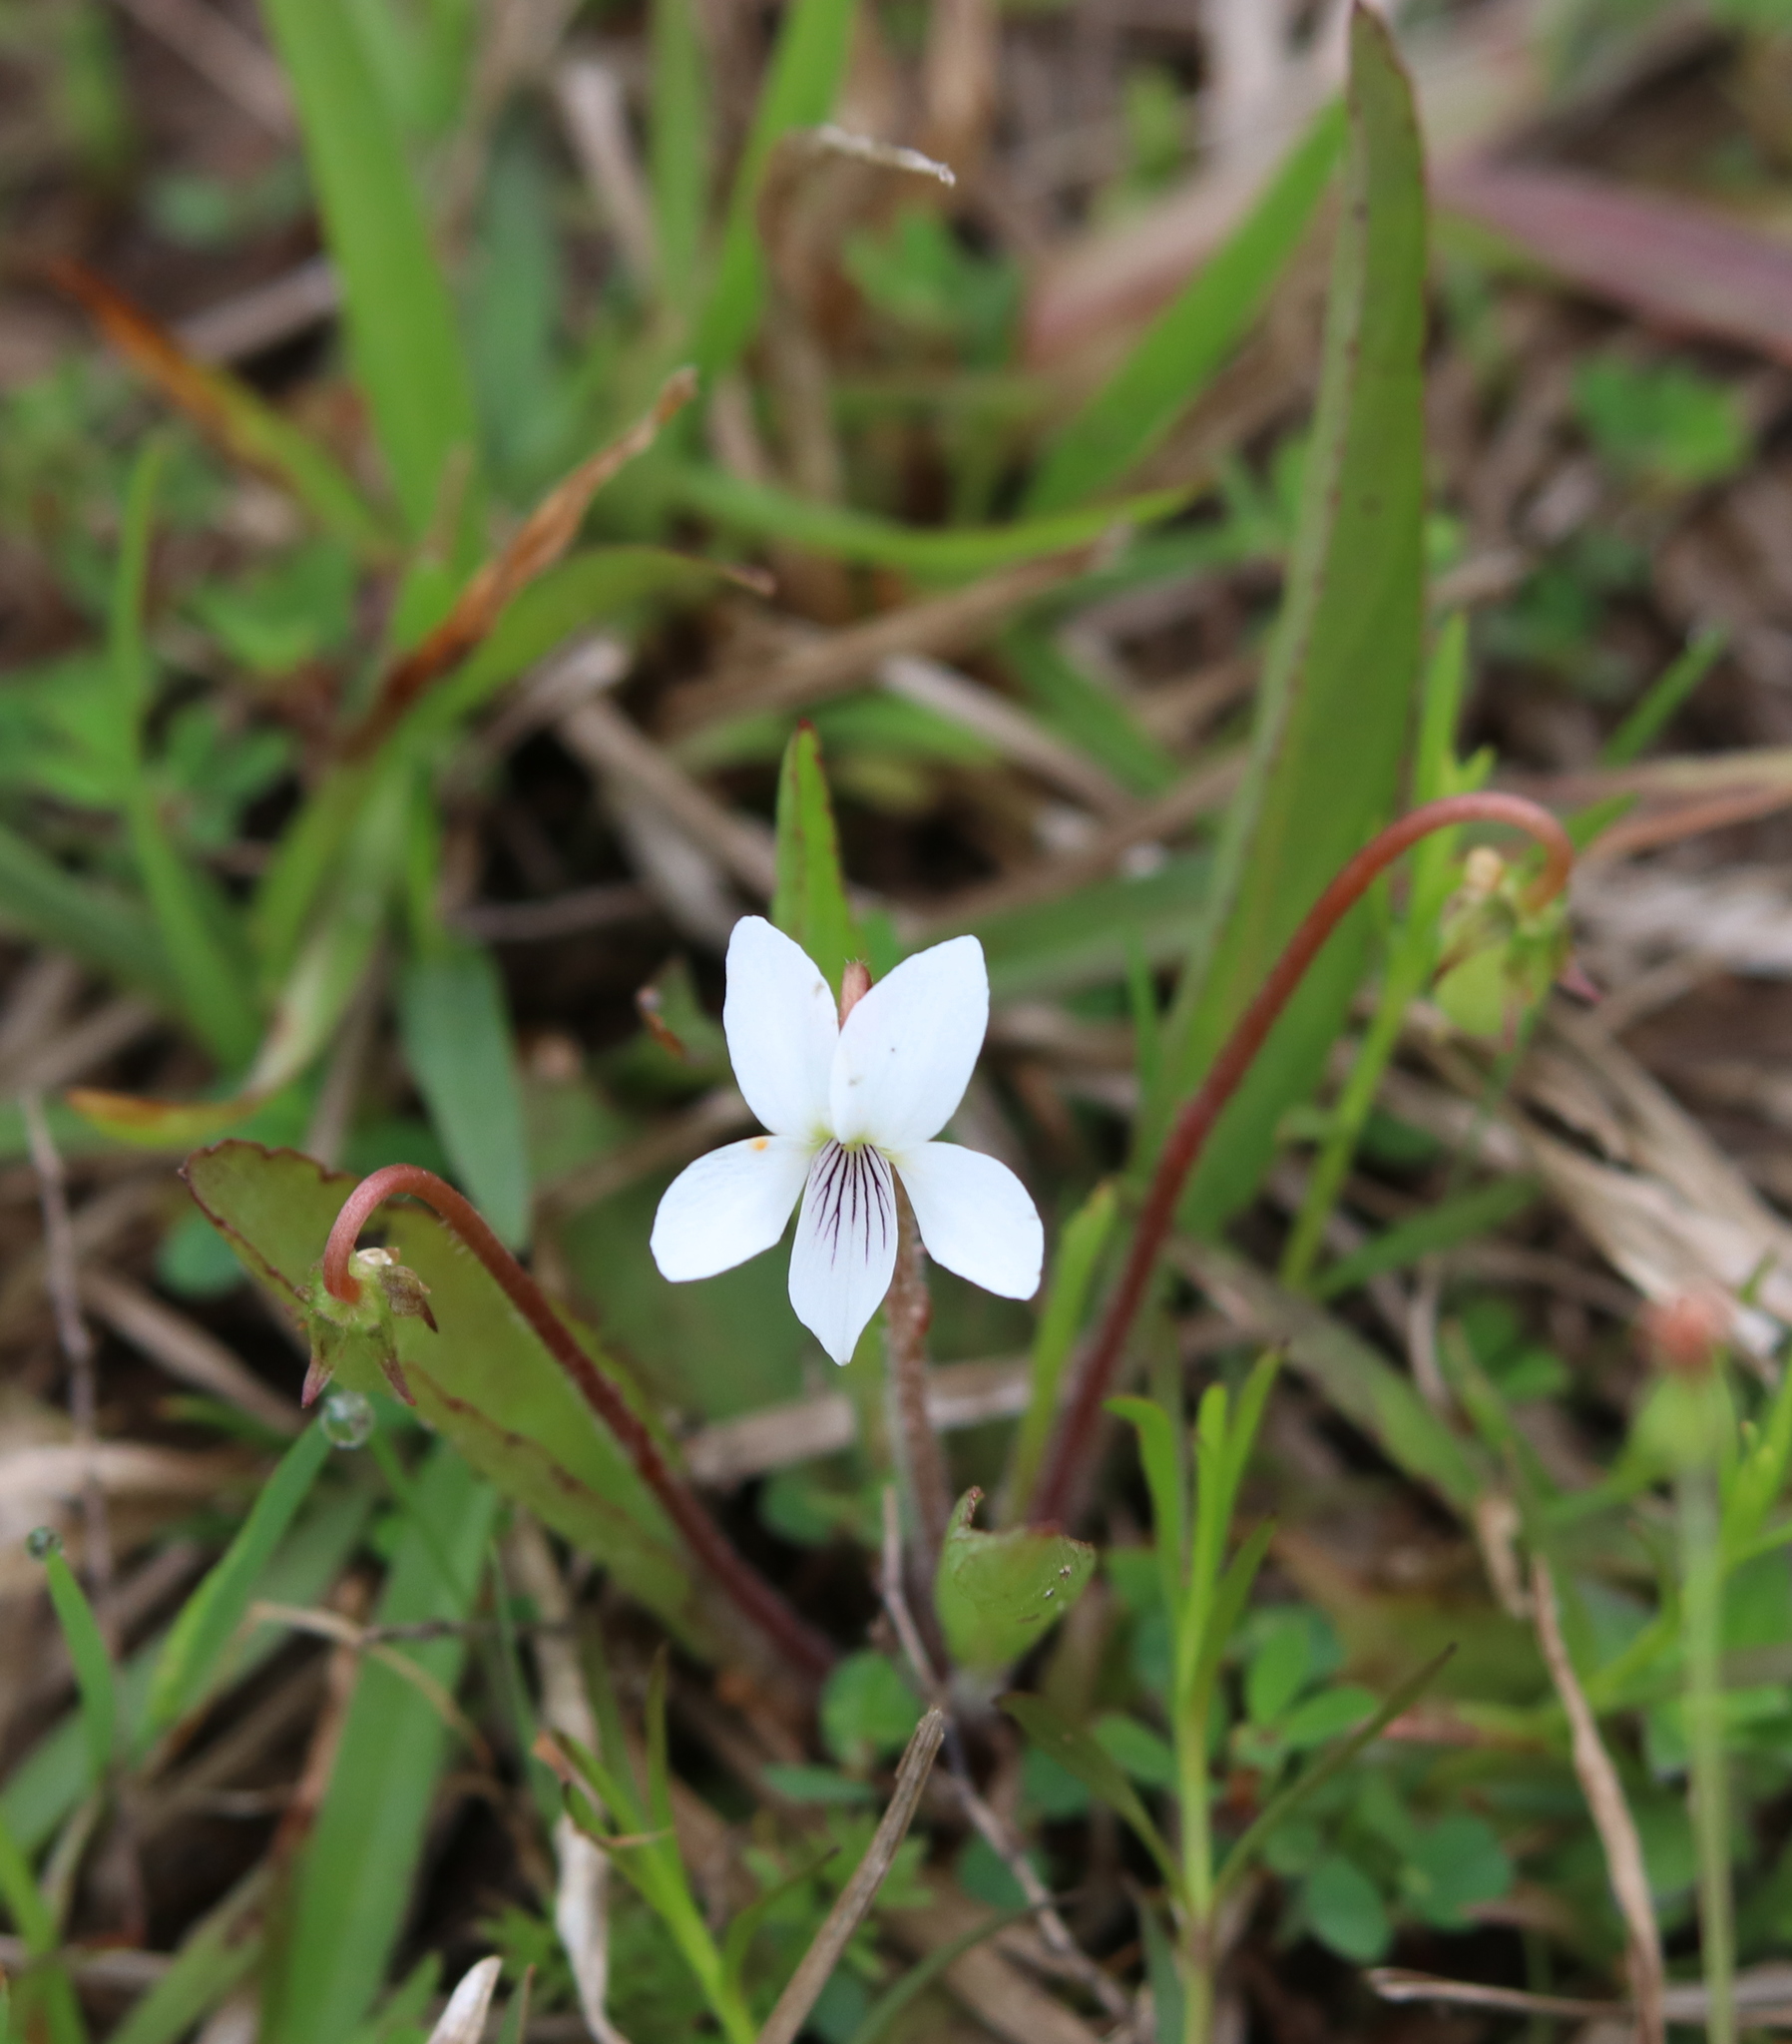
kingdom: Plantae
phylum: Tracheophyta
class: Magnoliopsida
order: Malpighiales
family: Violaceae
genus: Viola
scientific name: Viola lanceolata
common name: Bog white violet
